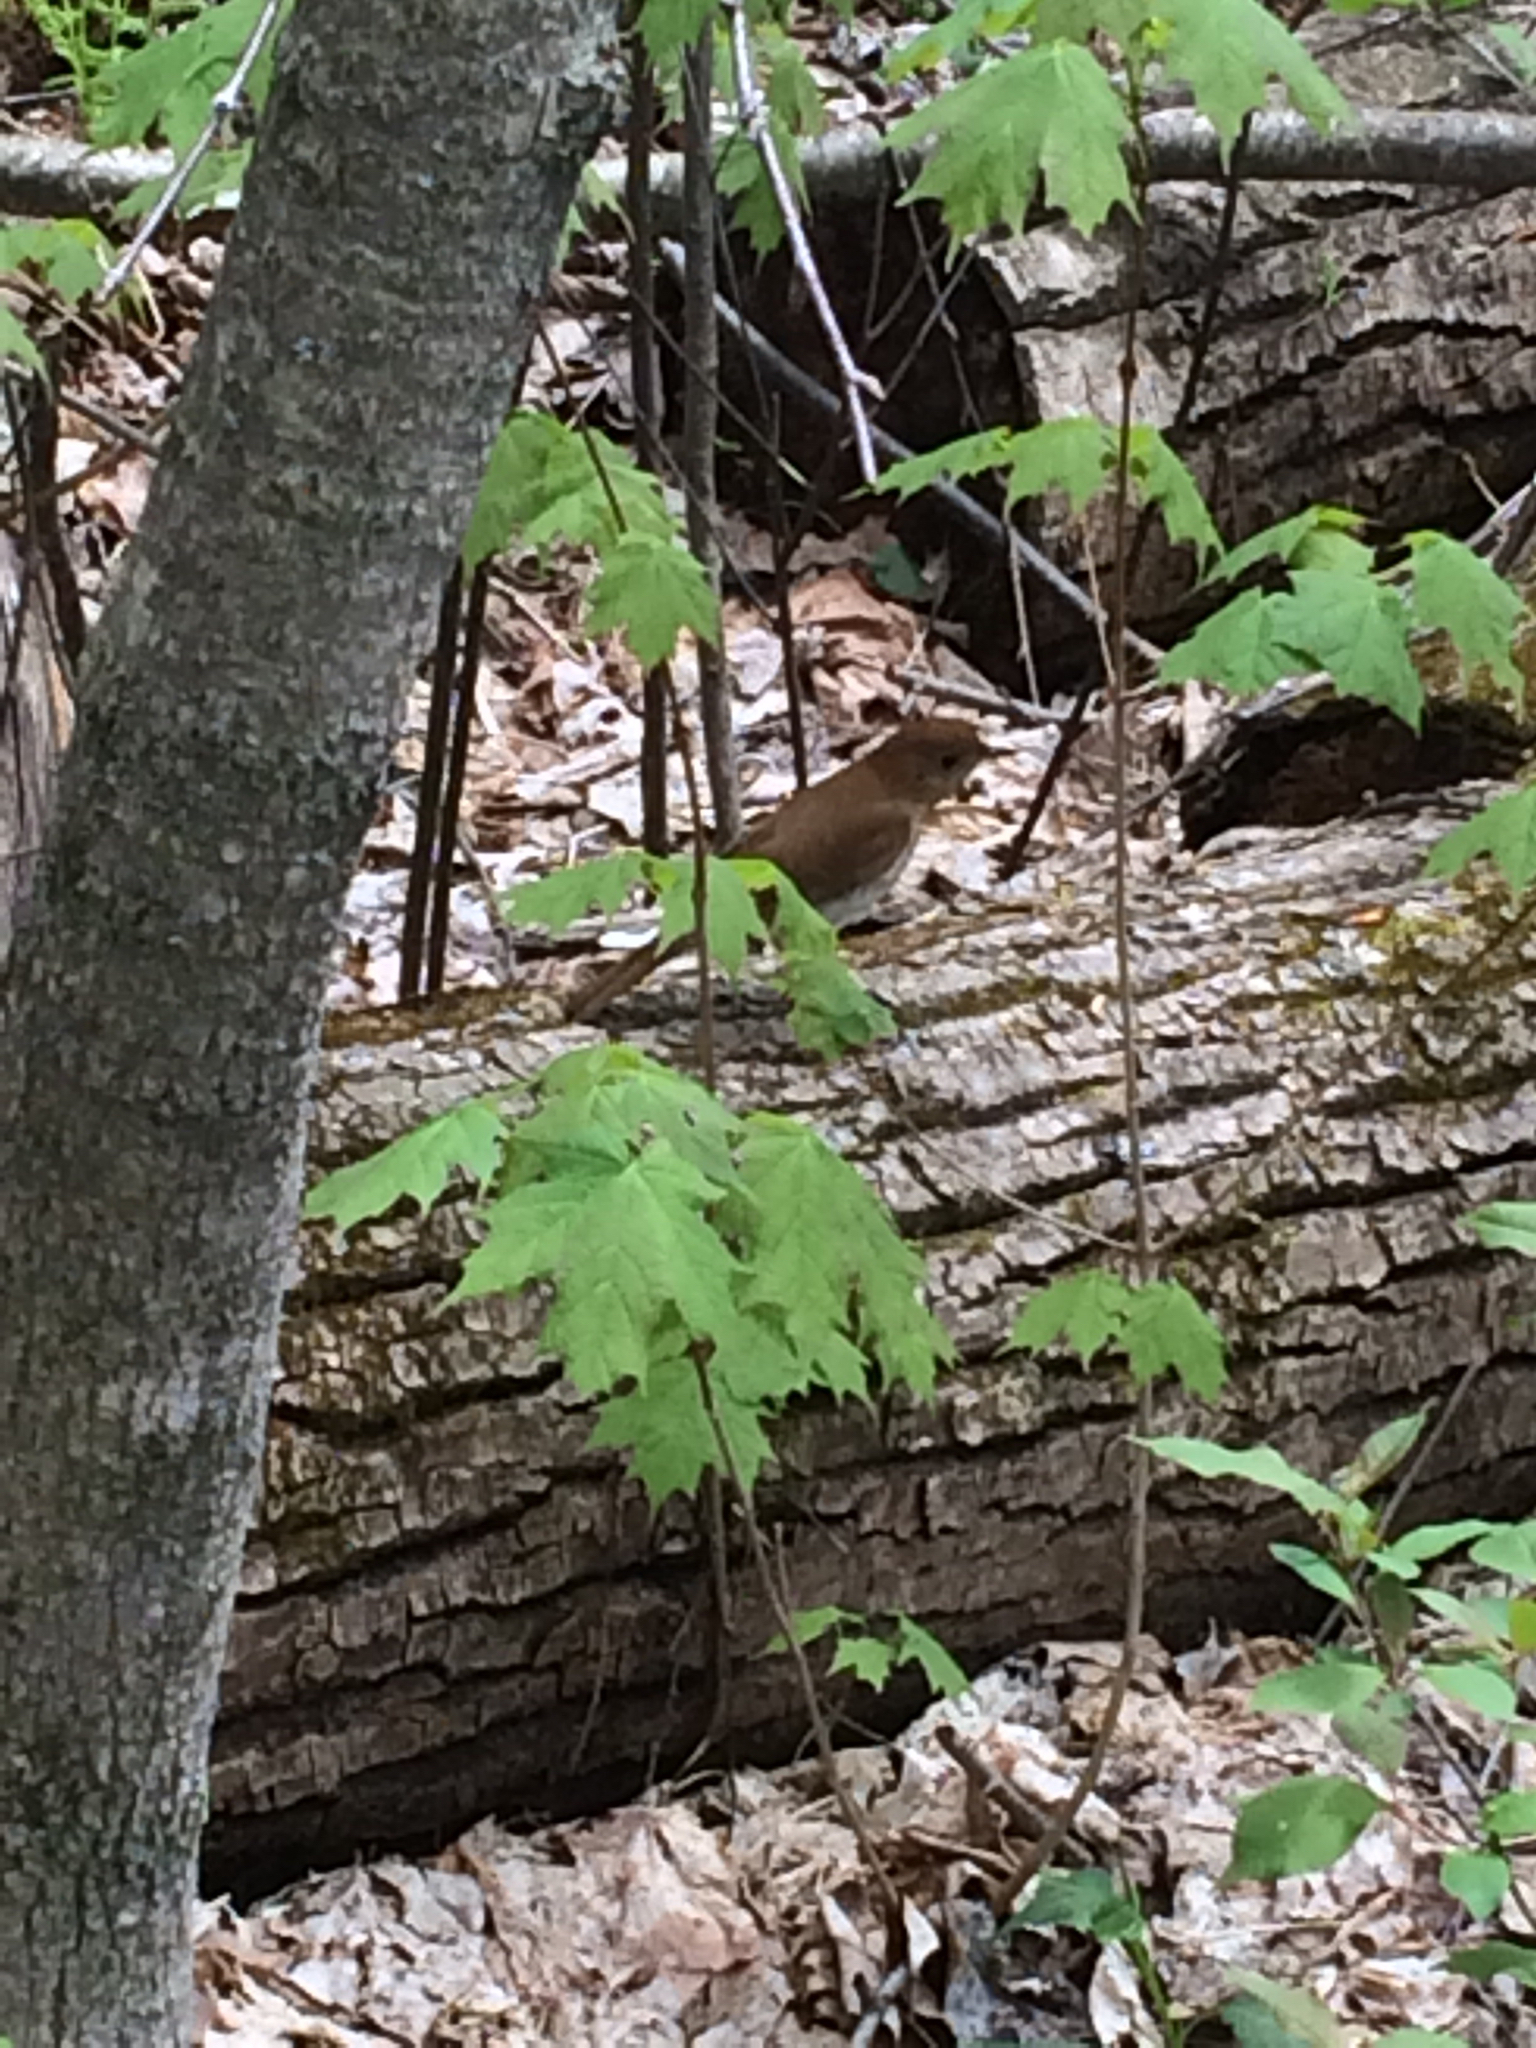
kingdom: Animalia
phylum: Chordata
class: Aves
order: Passeriformes
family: Turdidae
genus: Catharus
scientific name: Catharus fuscescens
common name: Veery
